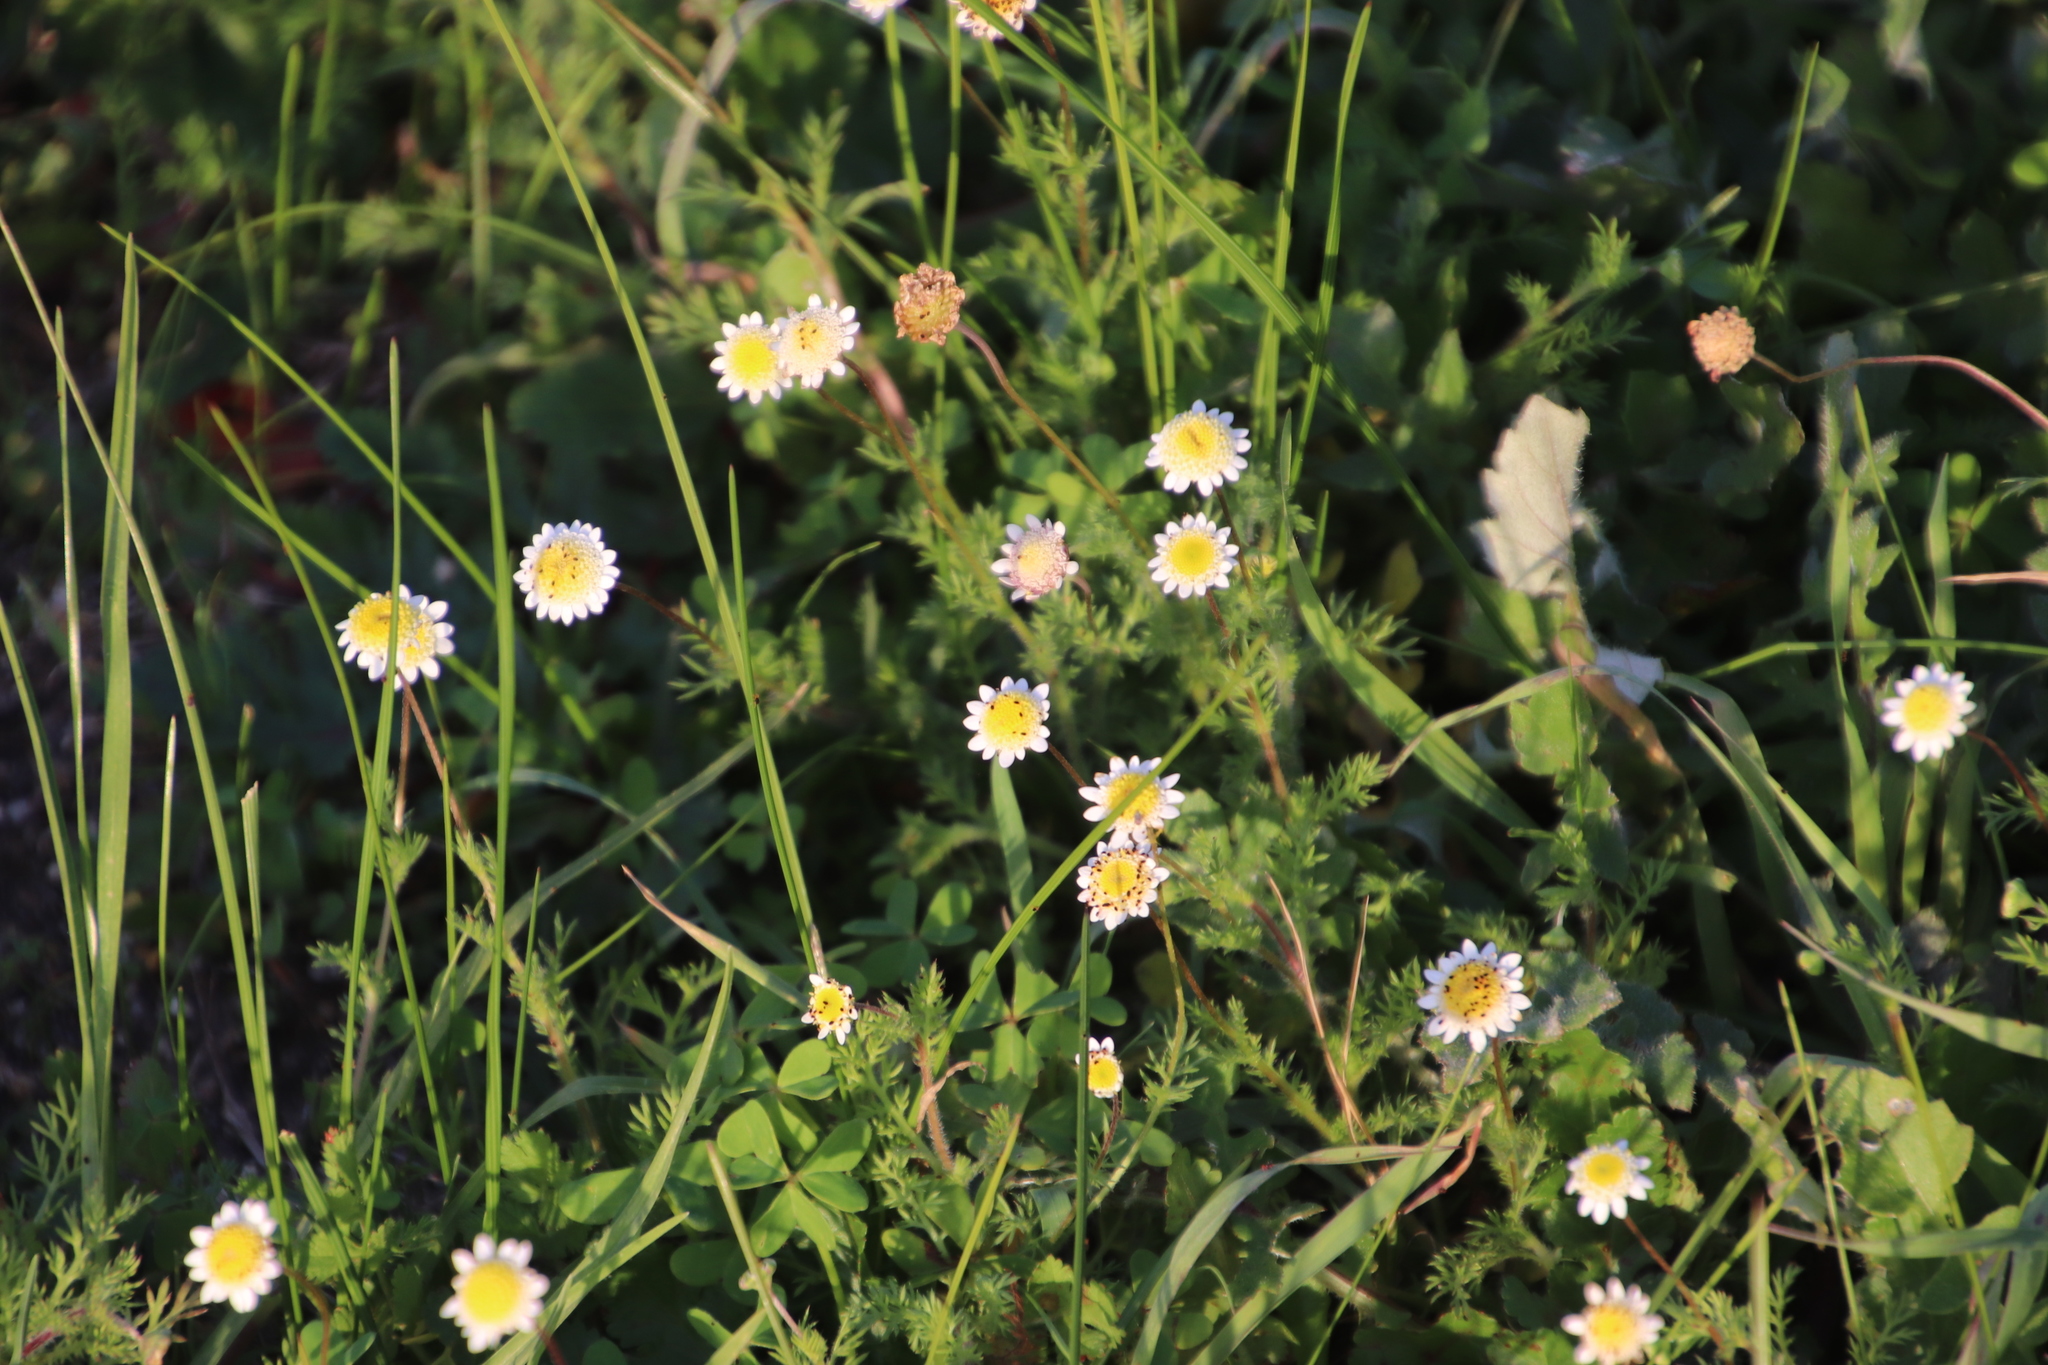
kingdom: Plantae
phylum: Tracheophyta
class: Magnoliopsida
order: Asterales
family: Asteraceae
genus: Cotula
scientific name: Cotula turbinata
